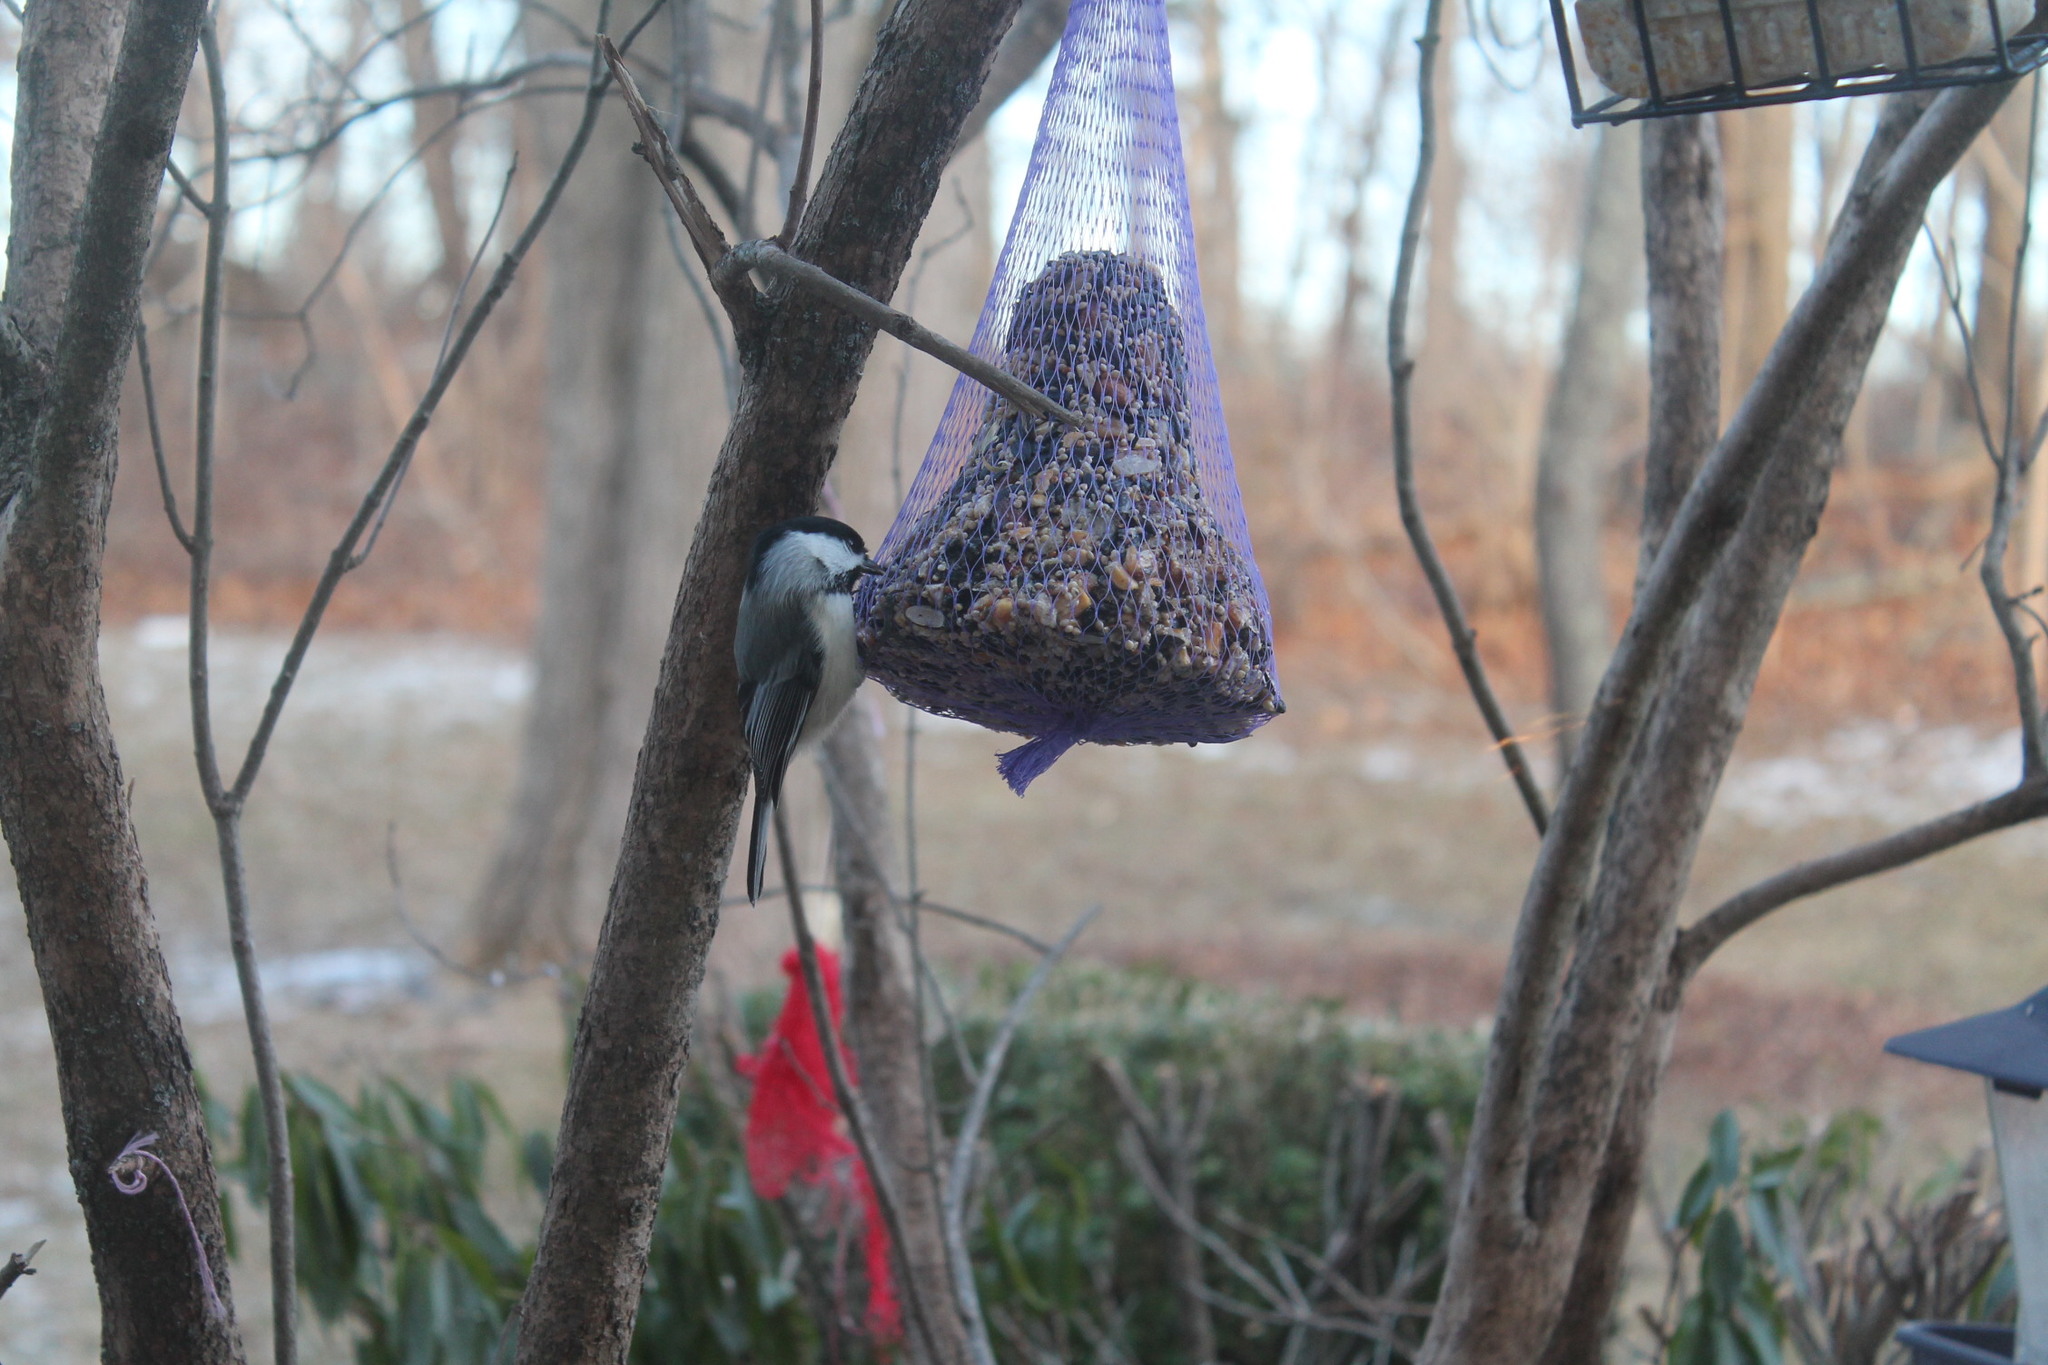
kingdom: Animalia
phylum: Chordata
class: Aves
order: Passeriformes
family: Paridae
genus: Poecile
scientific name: Poecile atricapillus
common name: Black-capped chickadee
